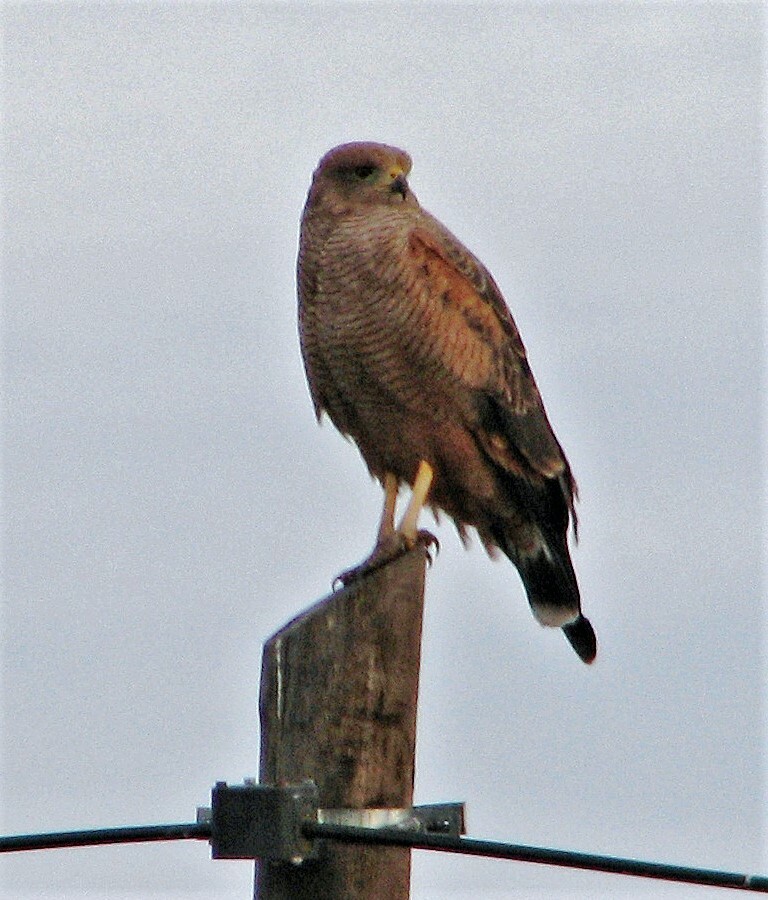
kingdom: Animalia
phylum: Chordata
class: Aves
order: Accipitriformes
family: Accipitridae
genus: Buteogallus
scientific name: Buteogallus meridionalis
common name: Savanna hawk
